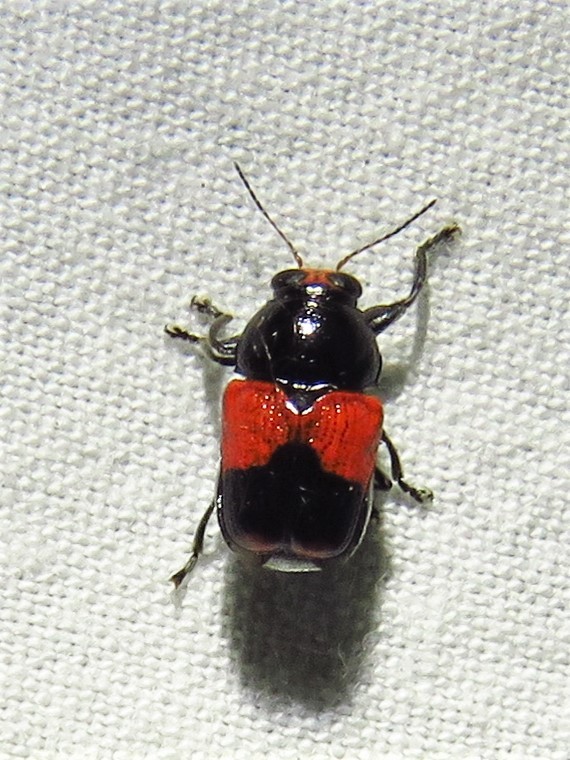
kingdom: Animalia
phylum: Arthropoda
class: Insecta
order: Coleoptera
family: Chrysomelidae
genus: Scelolyperus
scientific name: Scelolyperus lecontii
